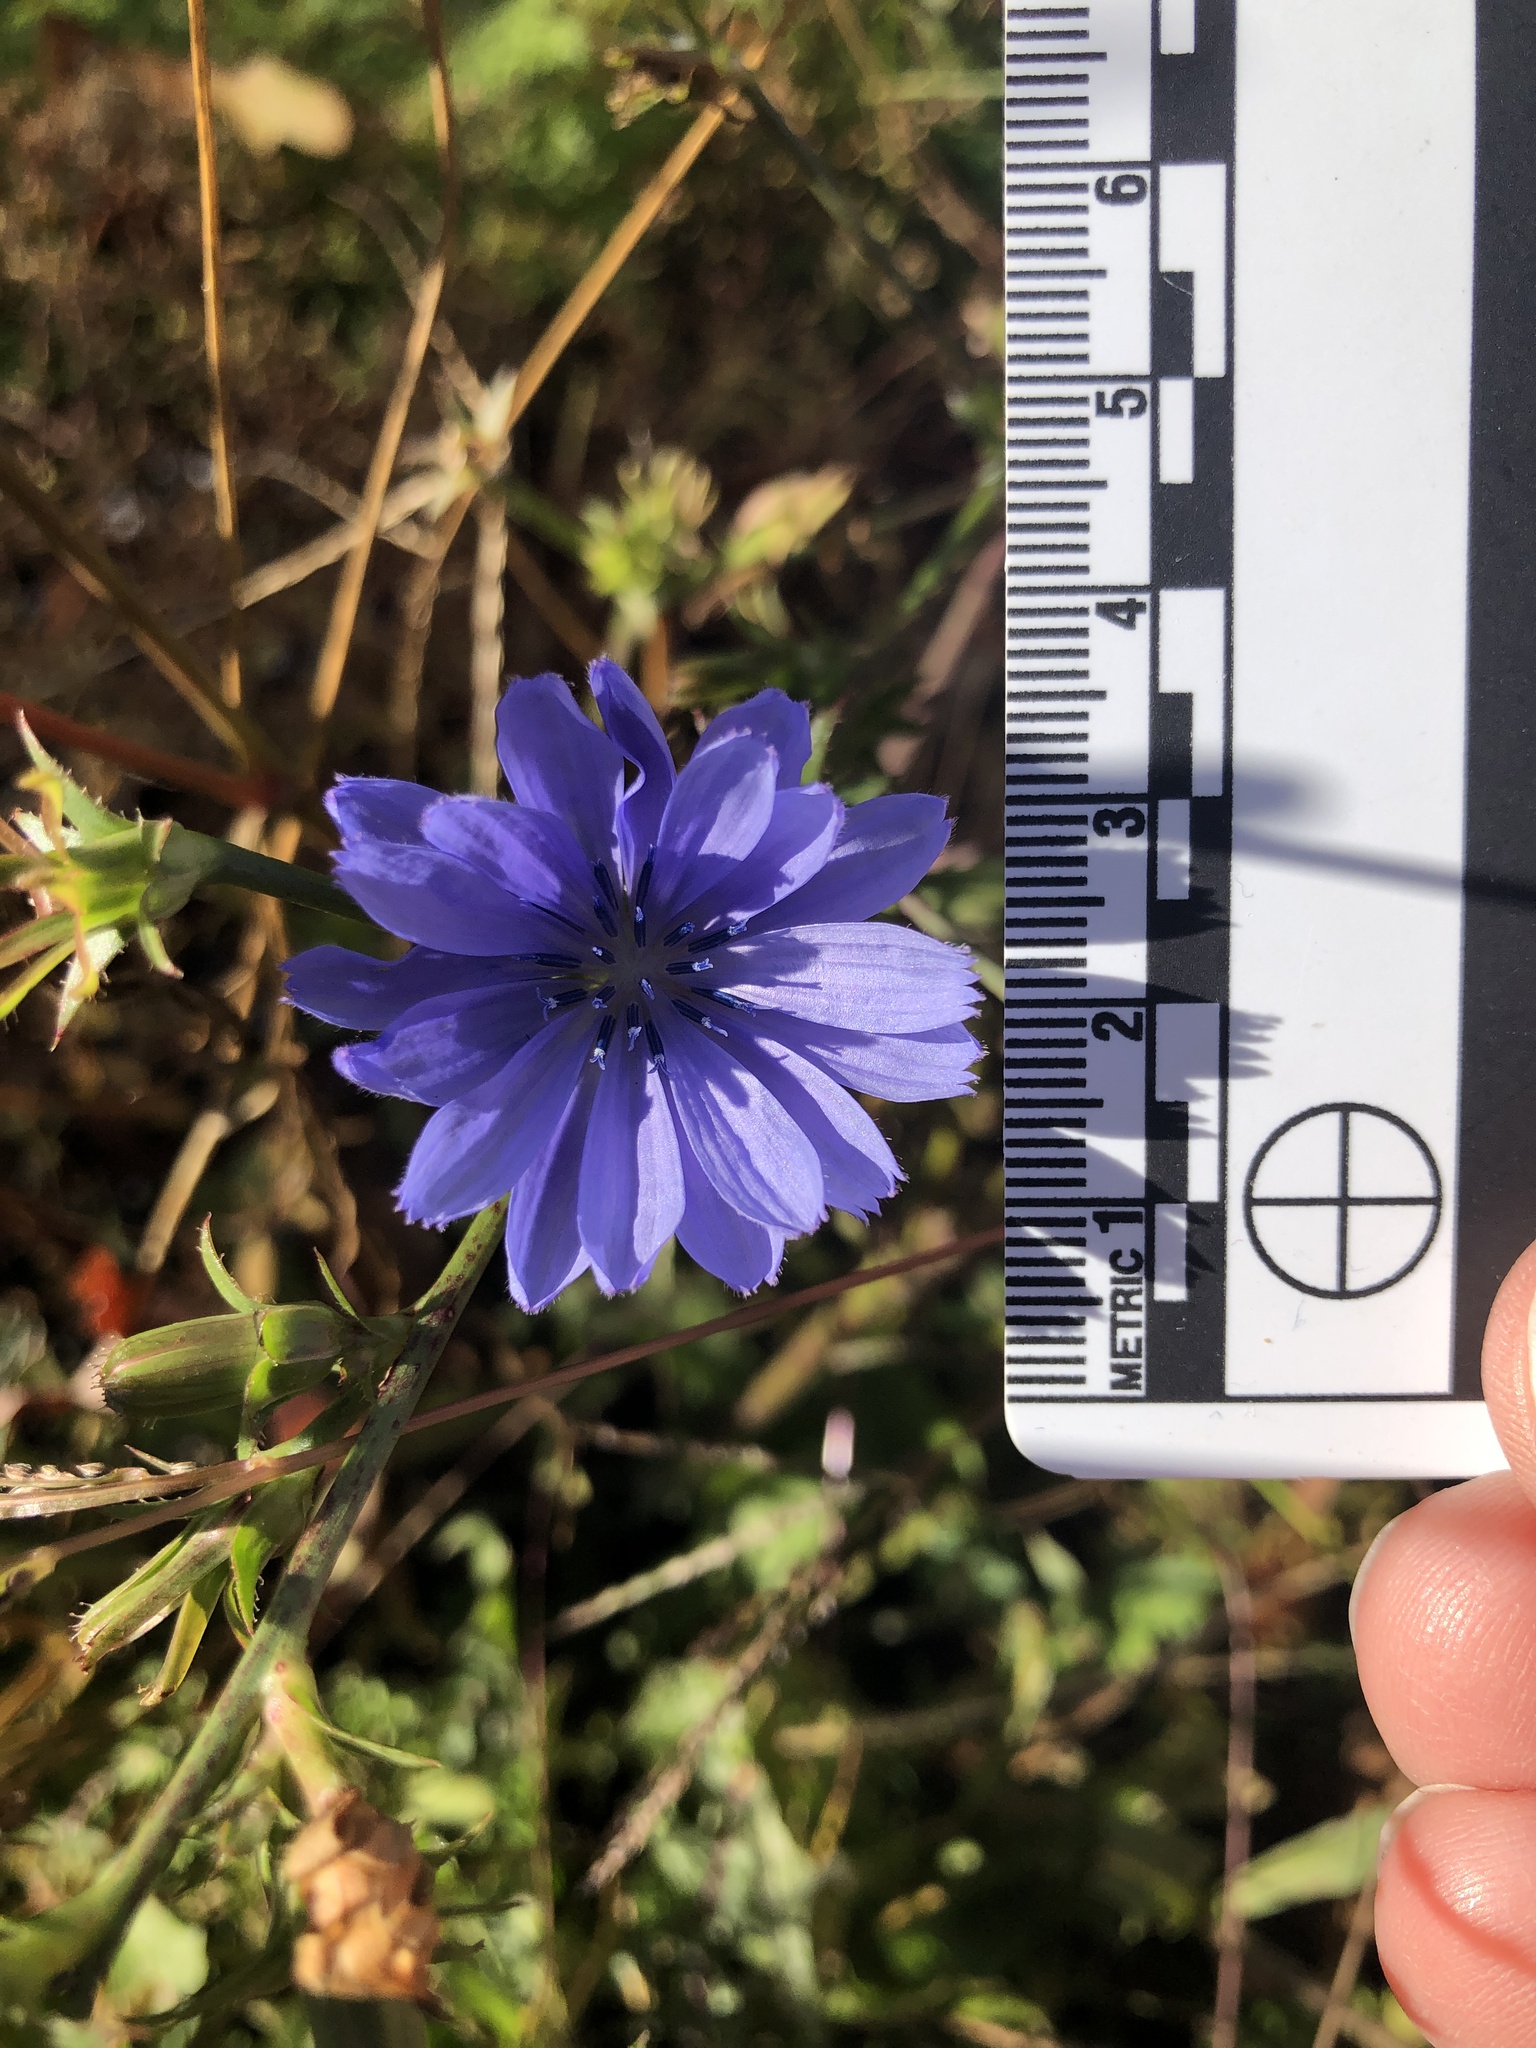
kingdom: Plantae
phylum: Tracheophyta
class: Magnoliopsida
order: Asterales
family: Asteraceae
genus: Cichorium
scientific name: Cichorium intybus
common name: Chicory
